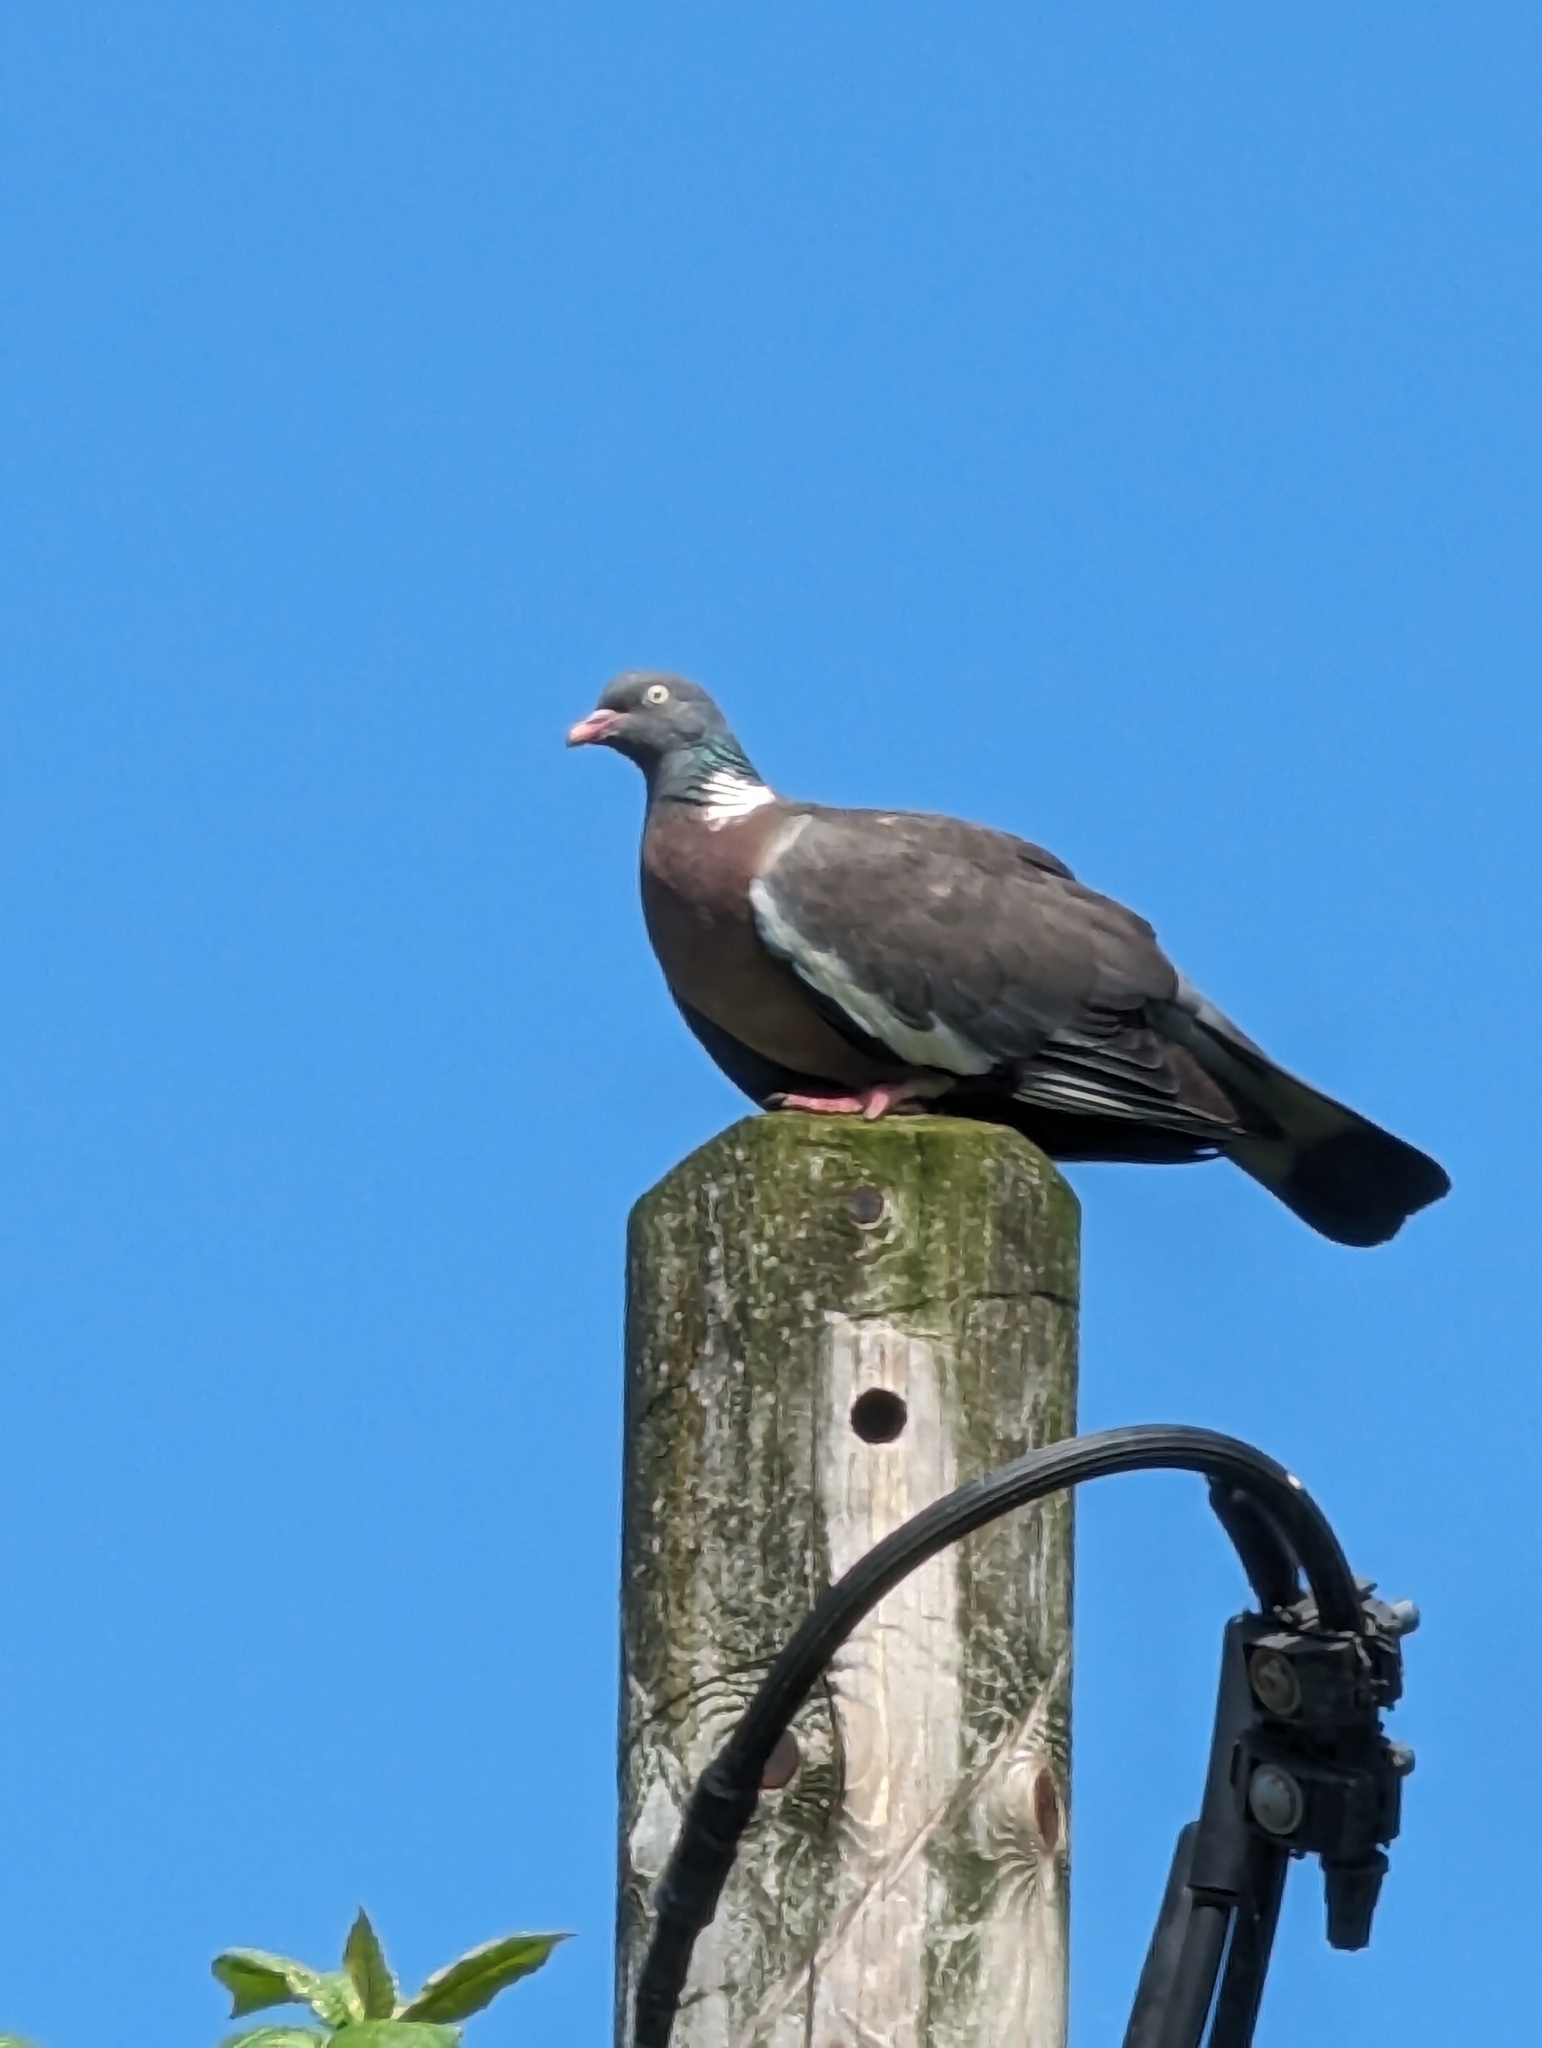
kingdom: Animalia
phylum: Chordata
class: Aves
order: Columbiformes
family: Columbidae
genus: Columba
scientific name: Columba palumbus
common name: Common wood pigeon
